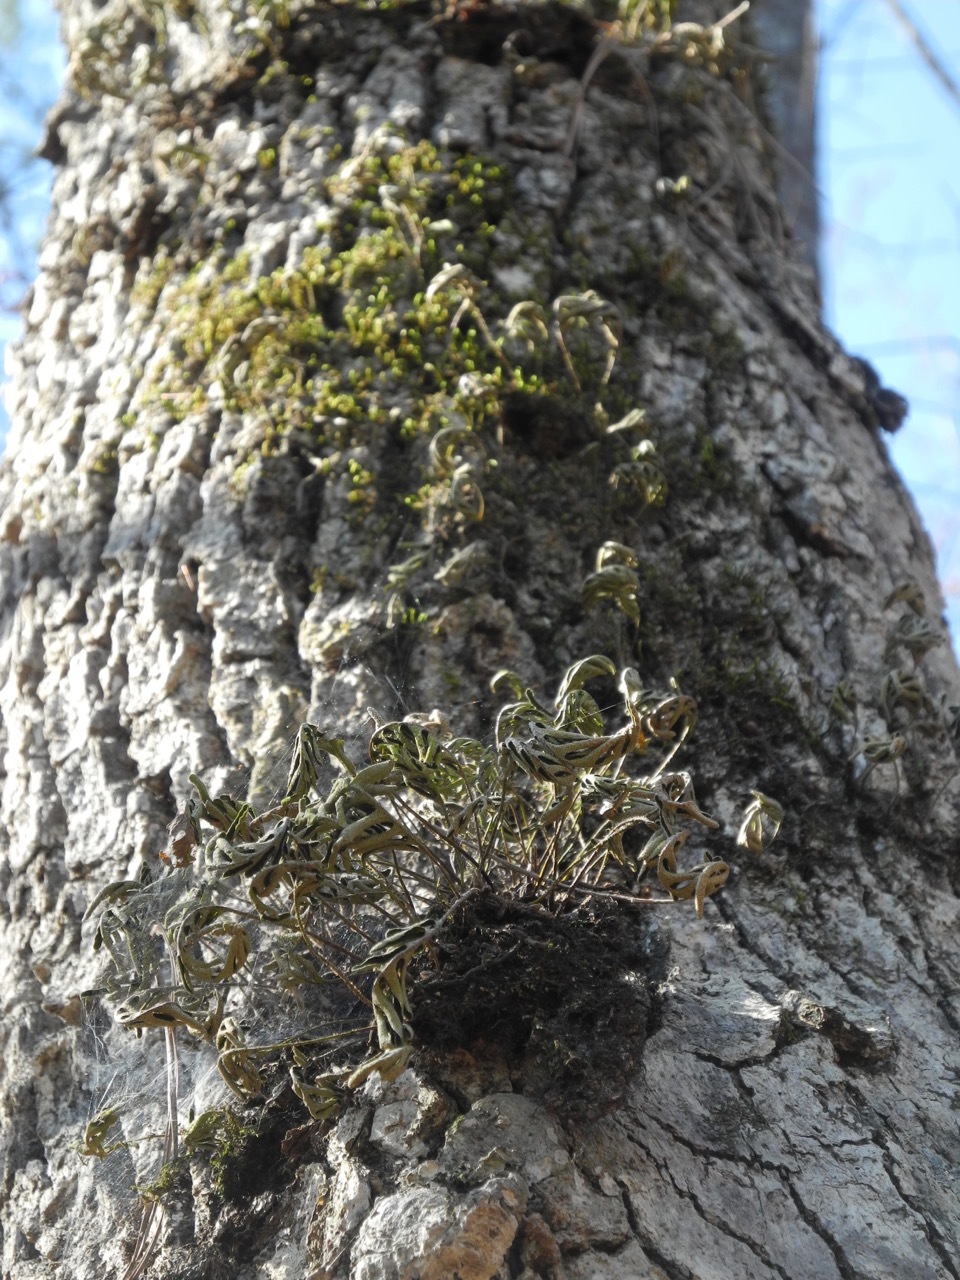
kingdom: Plantae
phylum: Tracheophyta
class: Polypodiopsida
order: Polypodiales
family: Polypodiaceae
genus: Pleopeltis
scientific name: Pleopeltis michauxiana
